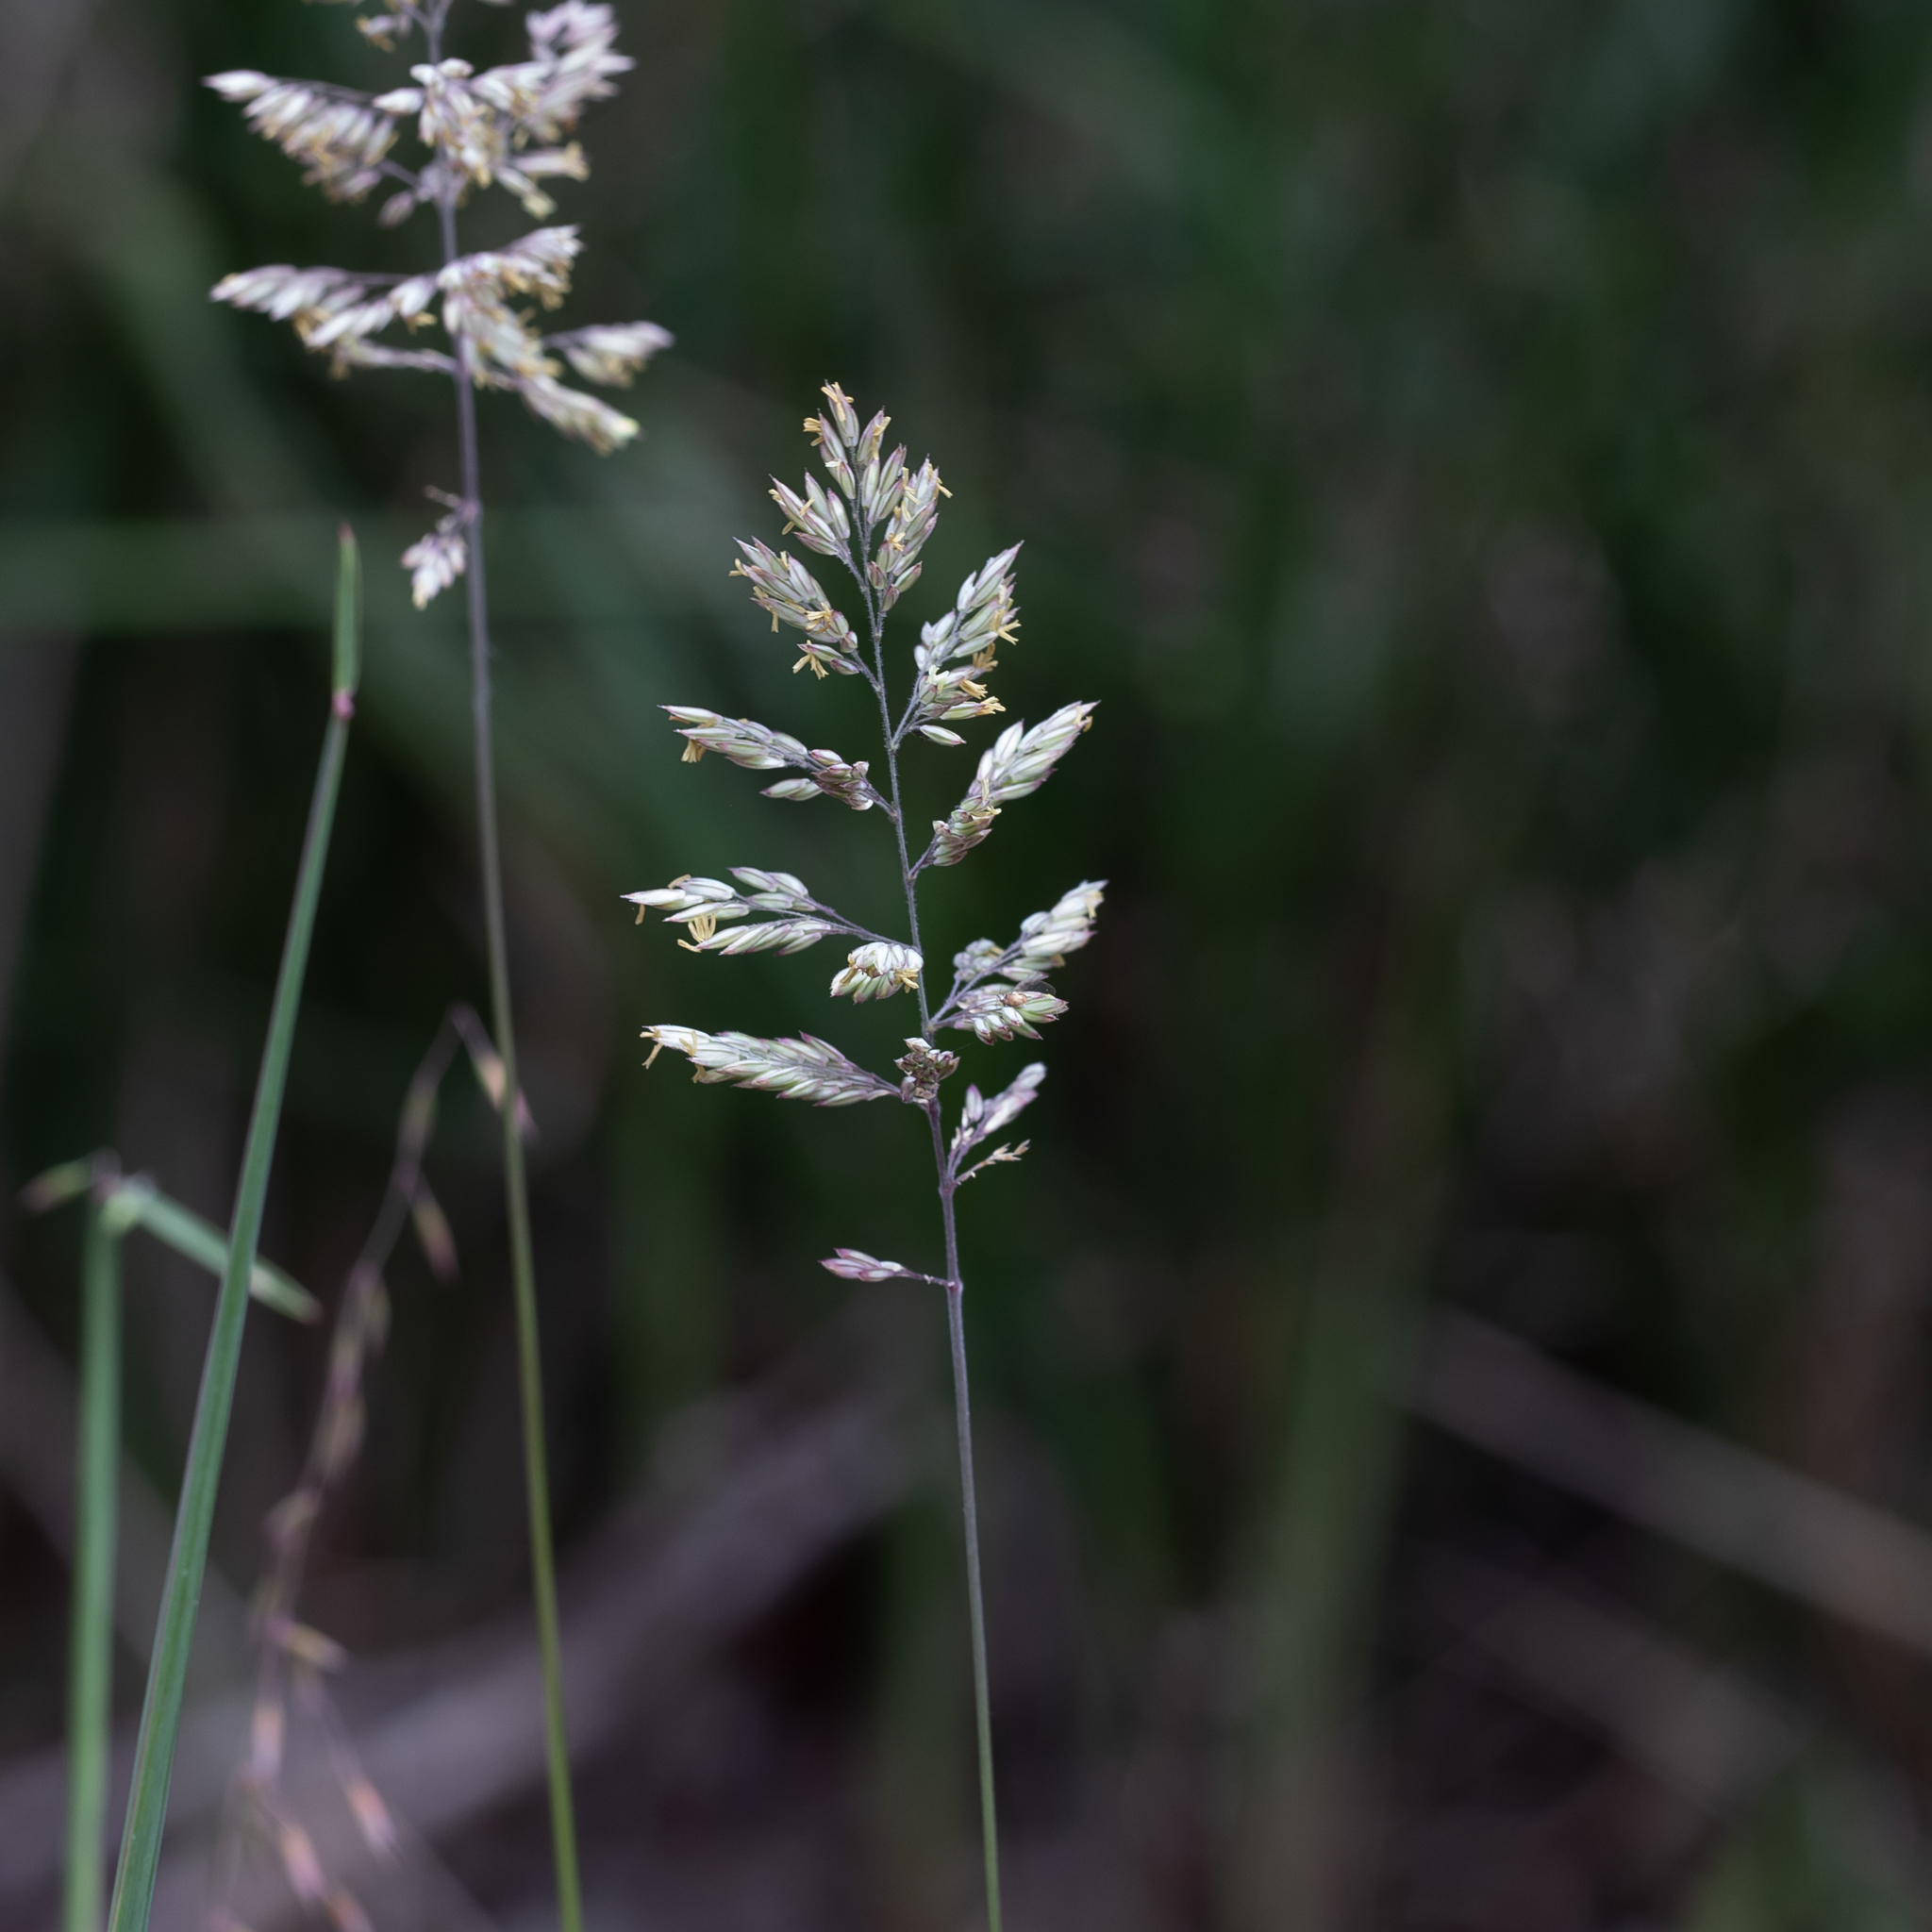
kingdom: Plantae
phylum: Tracheophyta
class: Liliopsida
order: Poales
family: Poaceae
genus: Holcus
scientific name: Holcus lanatus
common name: Yorkshire-fog
